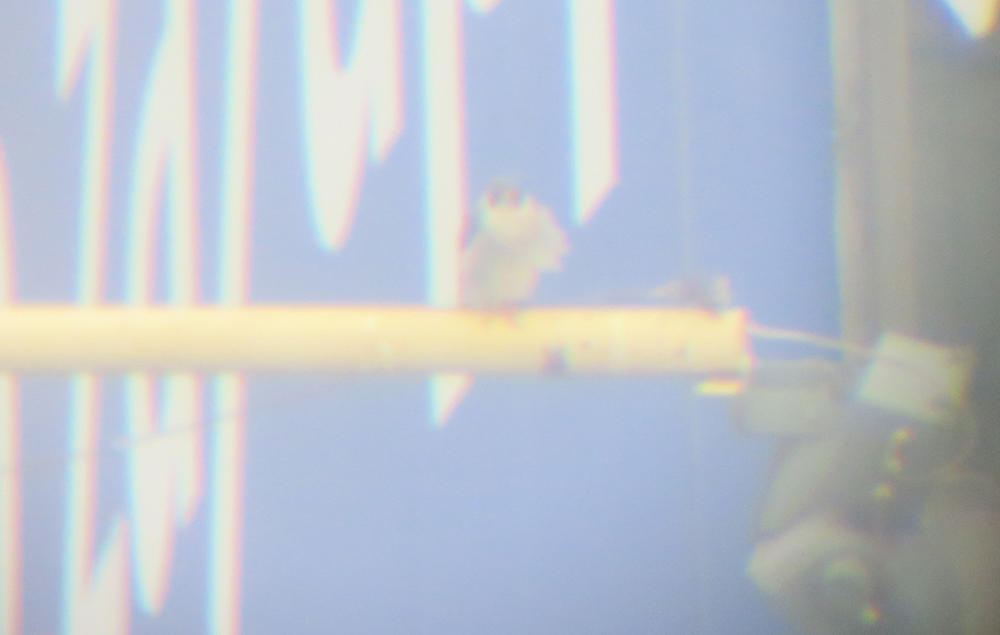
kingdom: Animalia
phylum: Chordata
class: Aves
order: Falconiformes
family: Falconidae
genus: Falco
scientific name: Falco peregrinus
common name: Peregrine falcon
